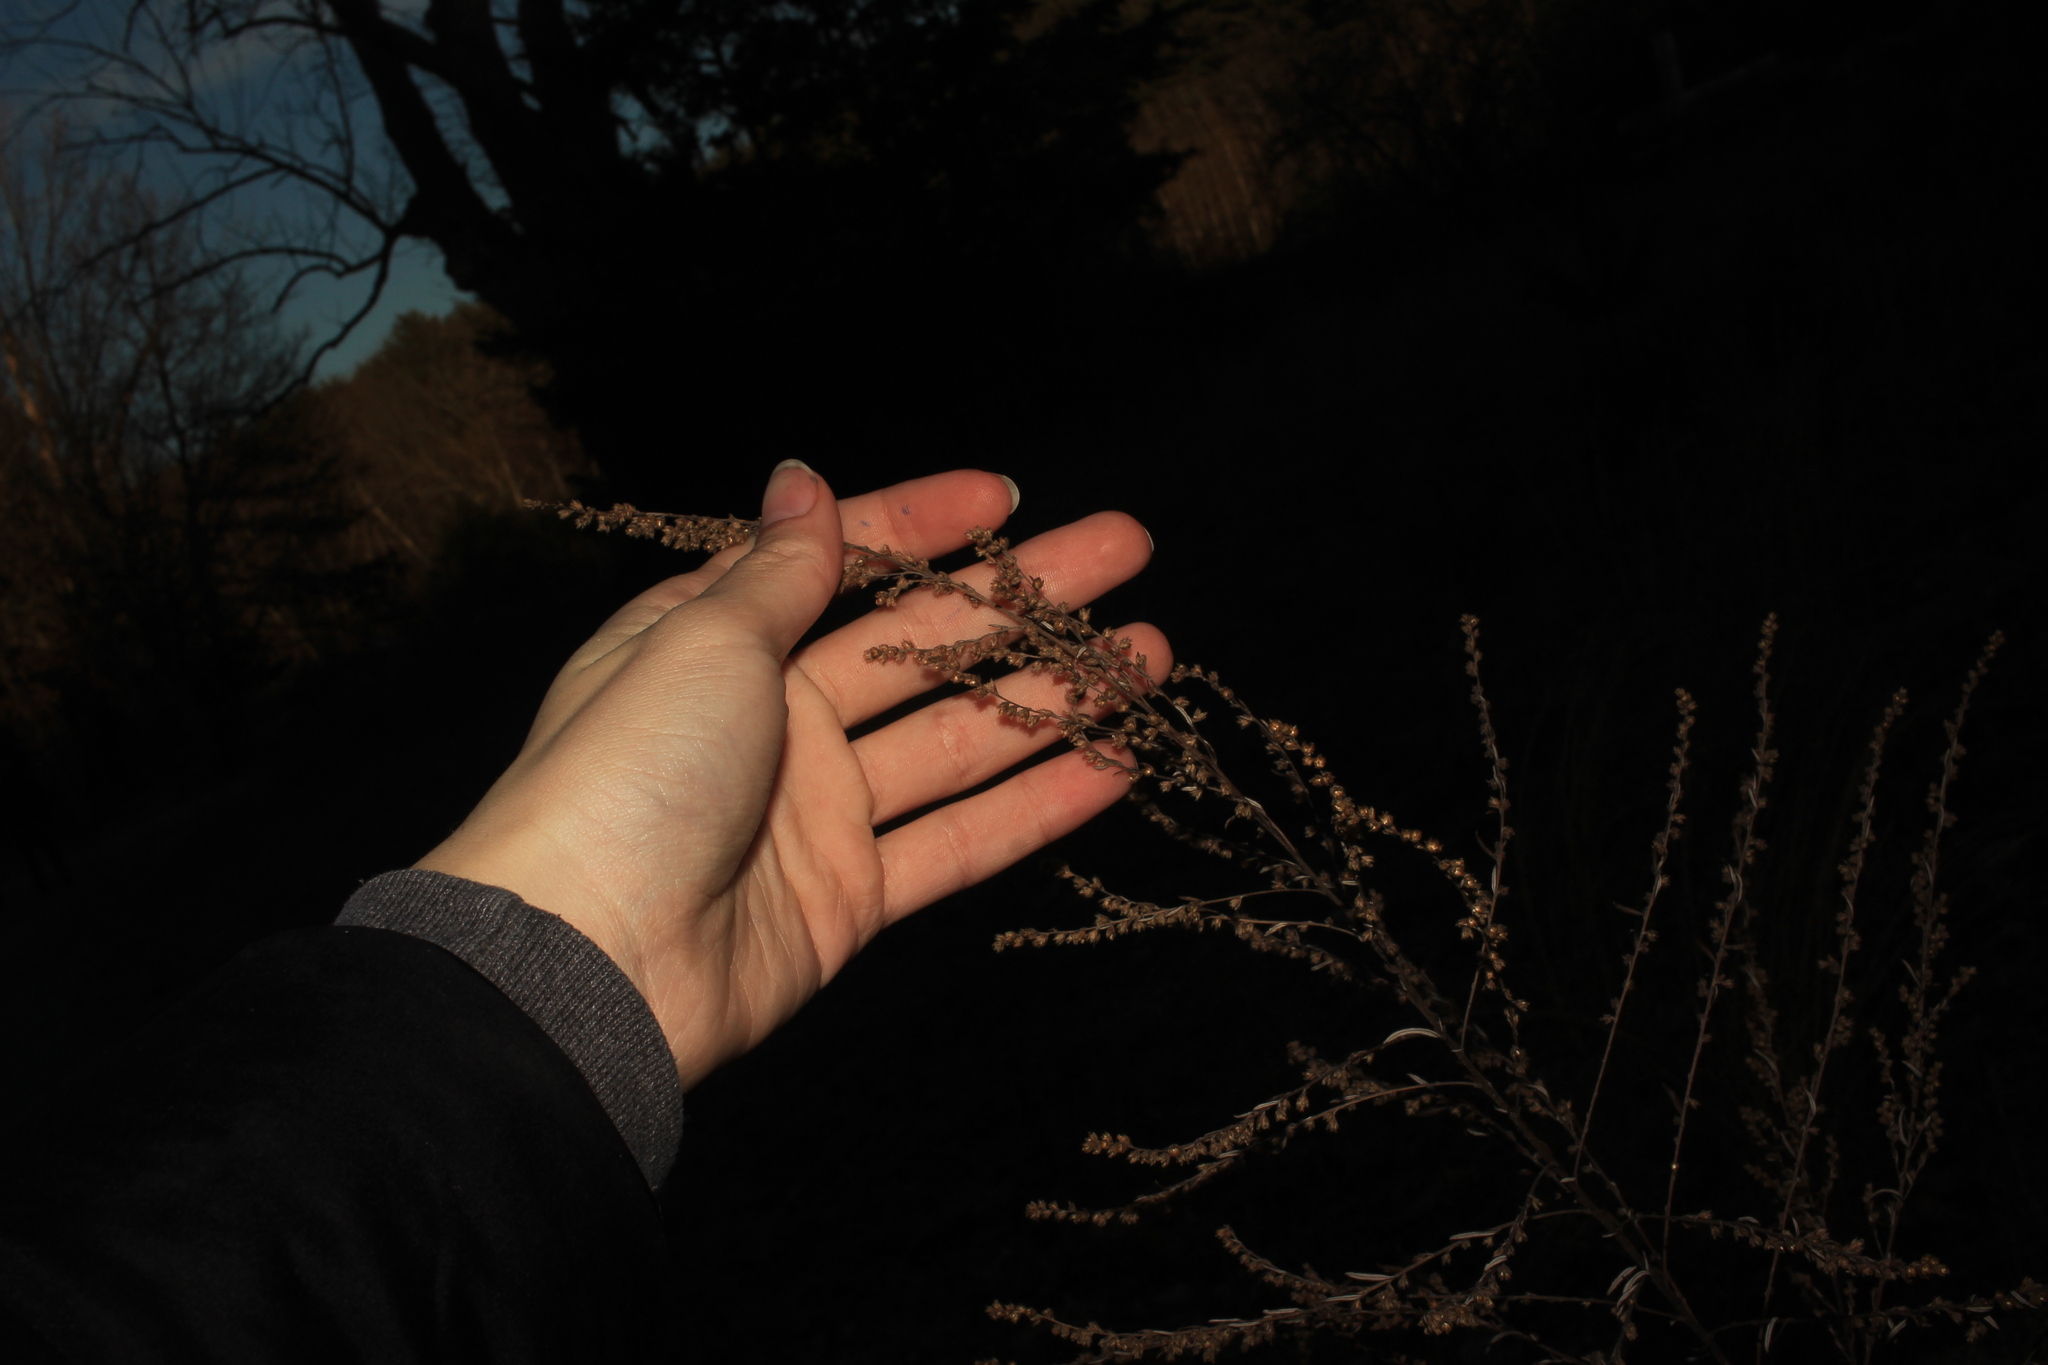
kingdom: Plantae
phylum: Tracheophyta
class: Magnoliopsida
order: Asterales
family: Asteraceae
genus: Artemisia
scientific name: Artemisia vulgaris
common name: Mugwort
